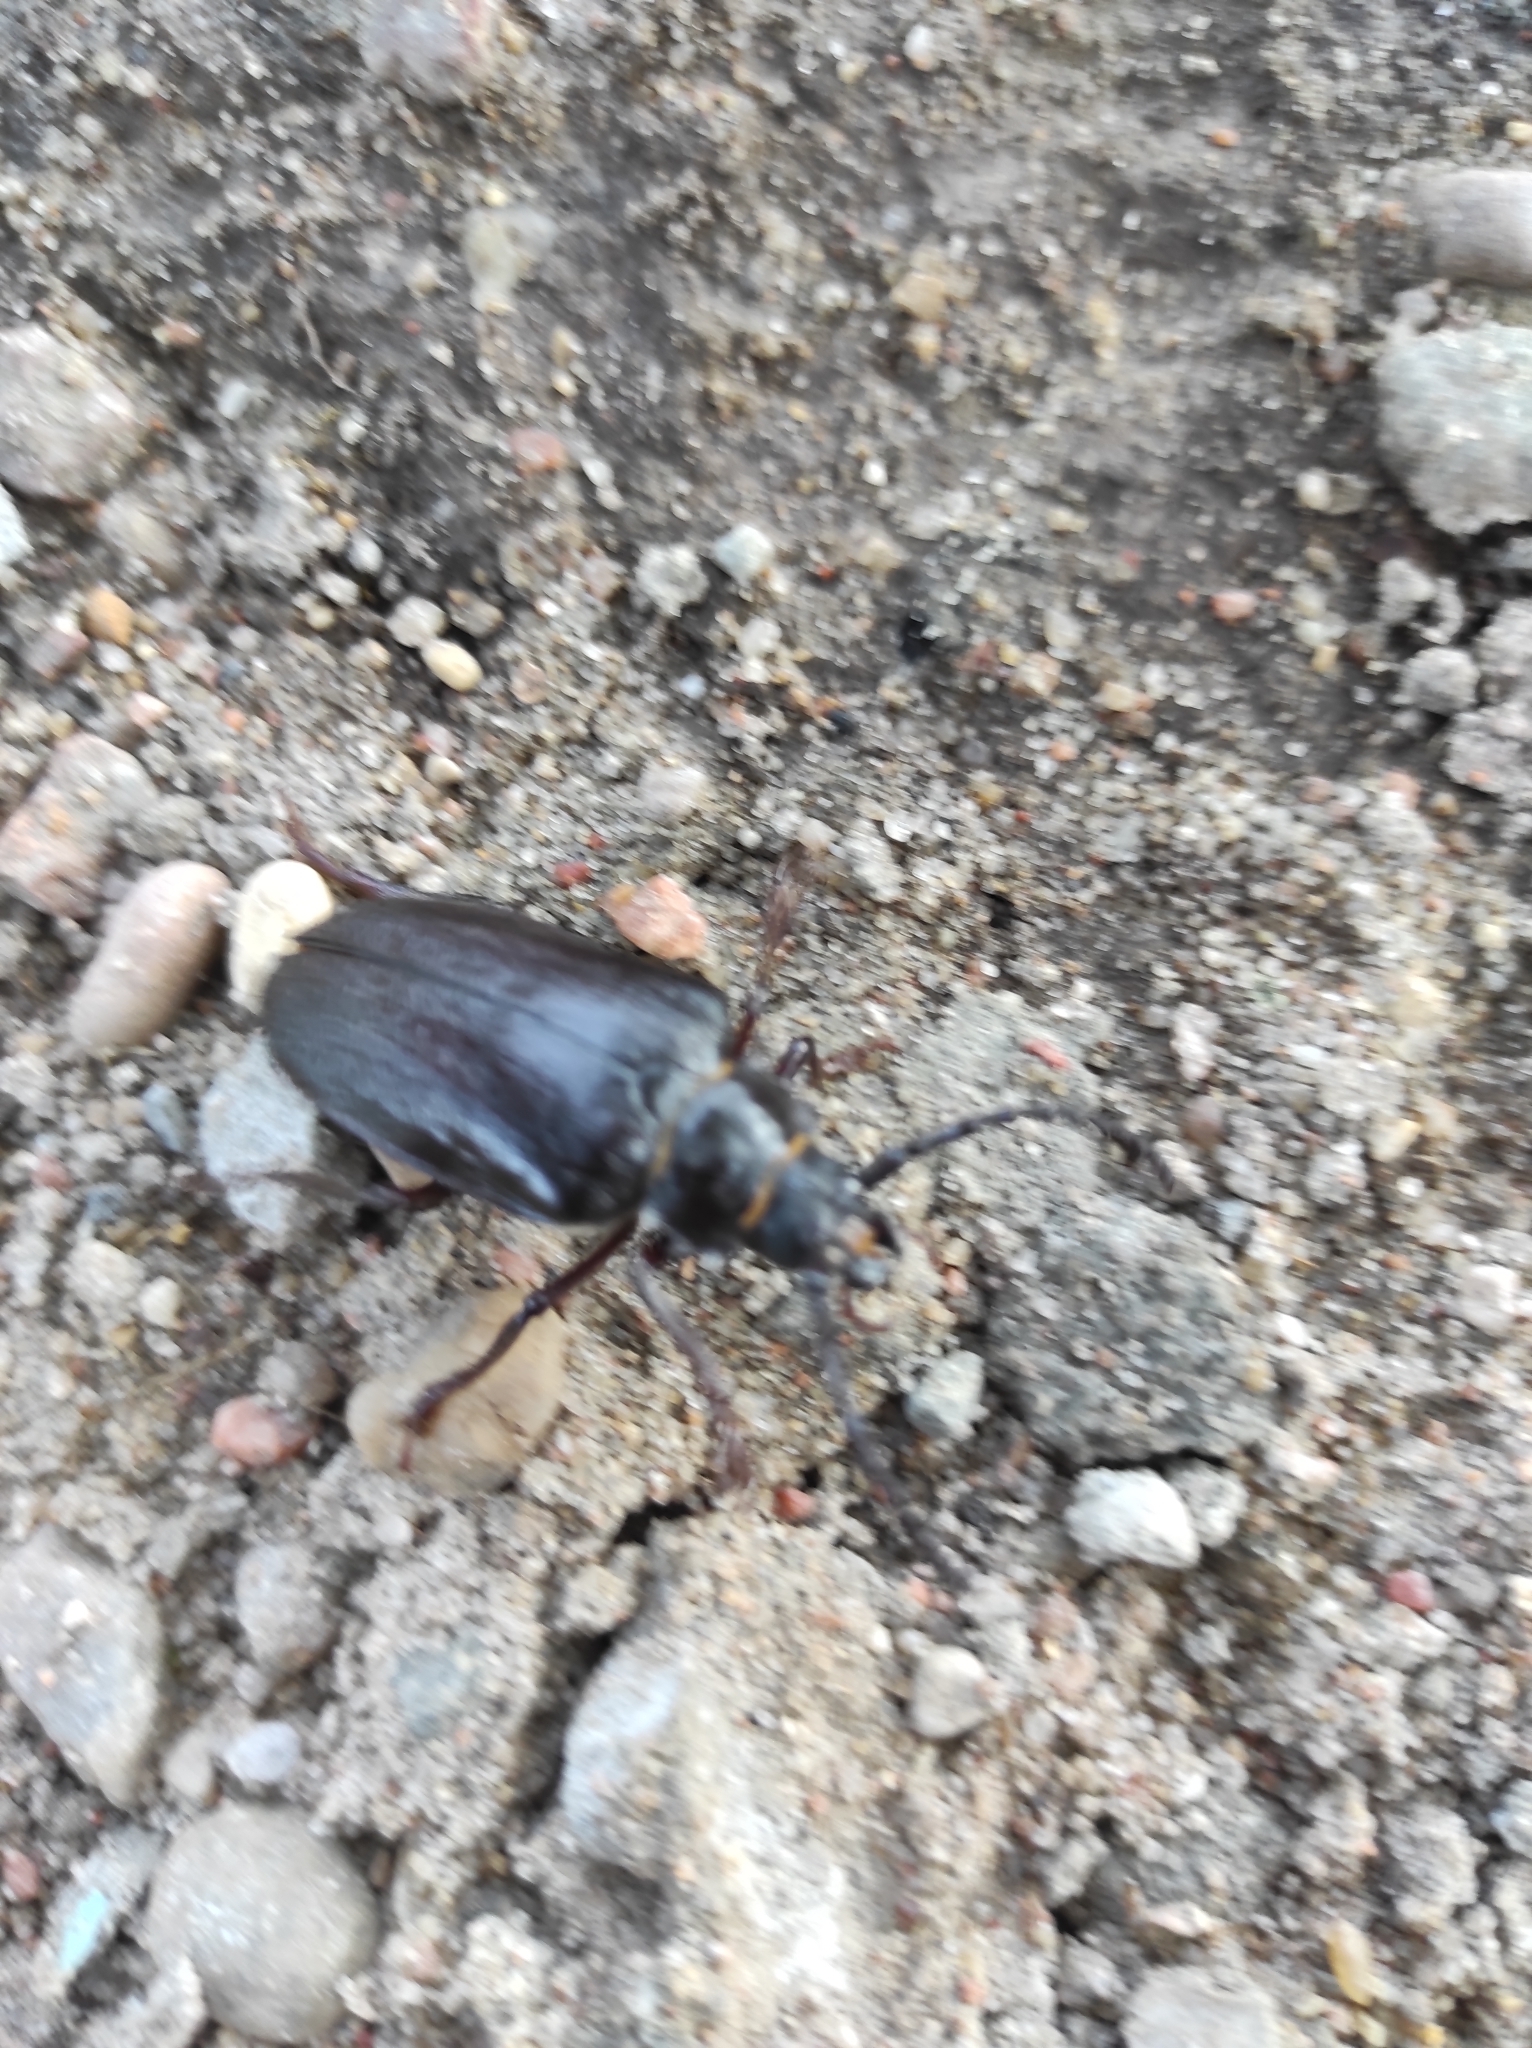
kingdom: Animalia
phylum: Arthropoda
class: Insecta
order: Coleoptera
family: Cerambycidae
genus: Prionus
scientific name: Prionus coriarius
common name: Tanner beetle
